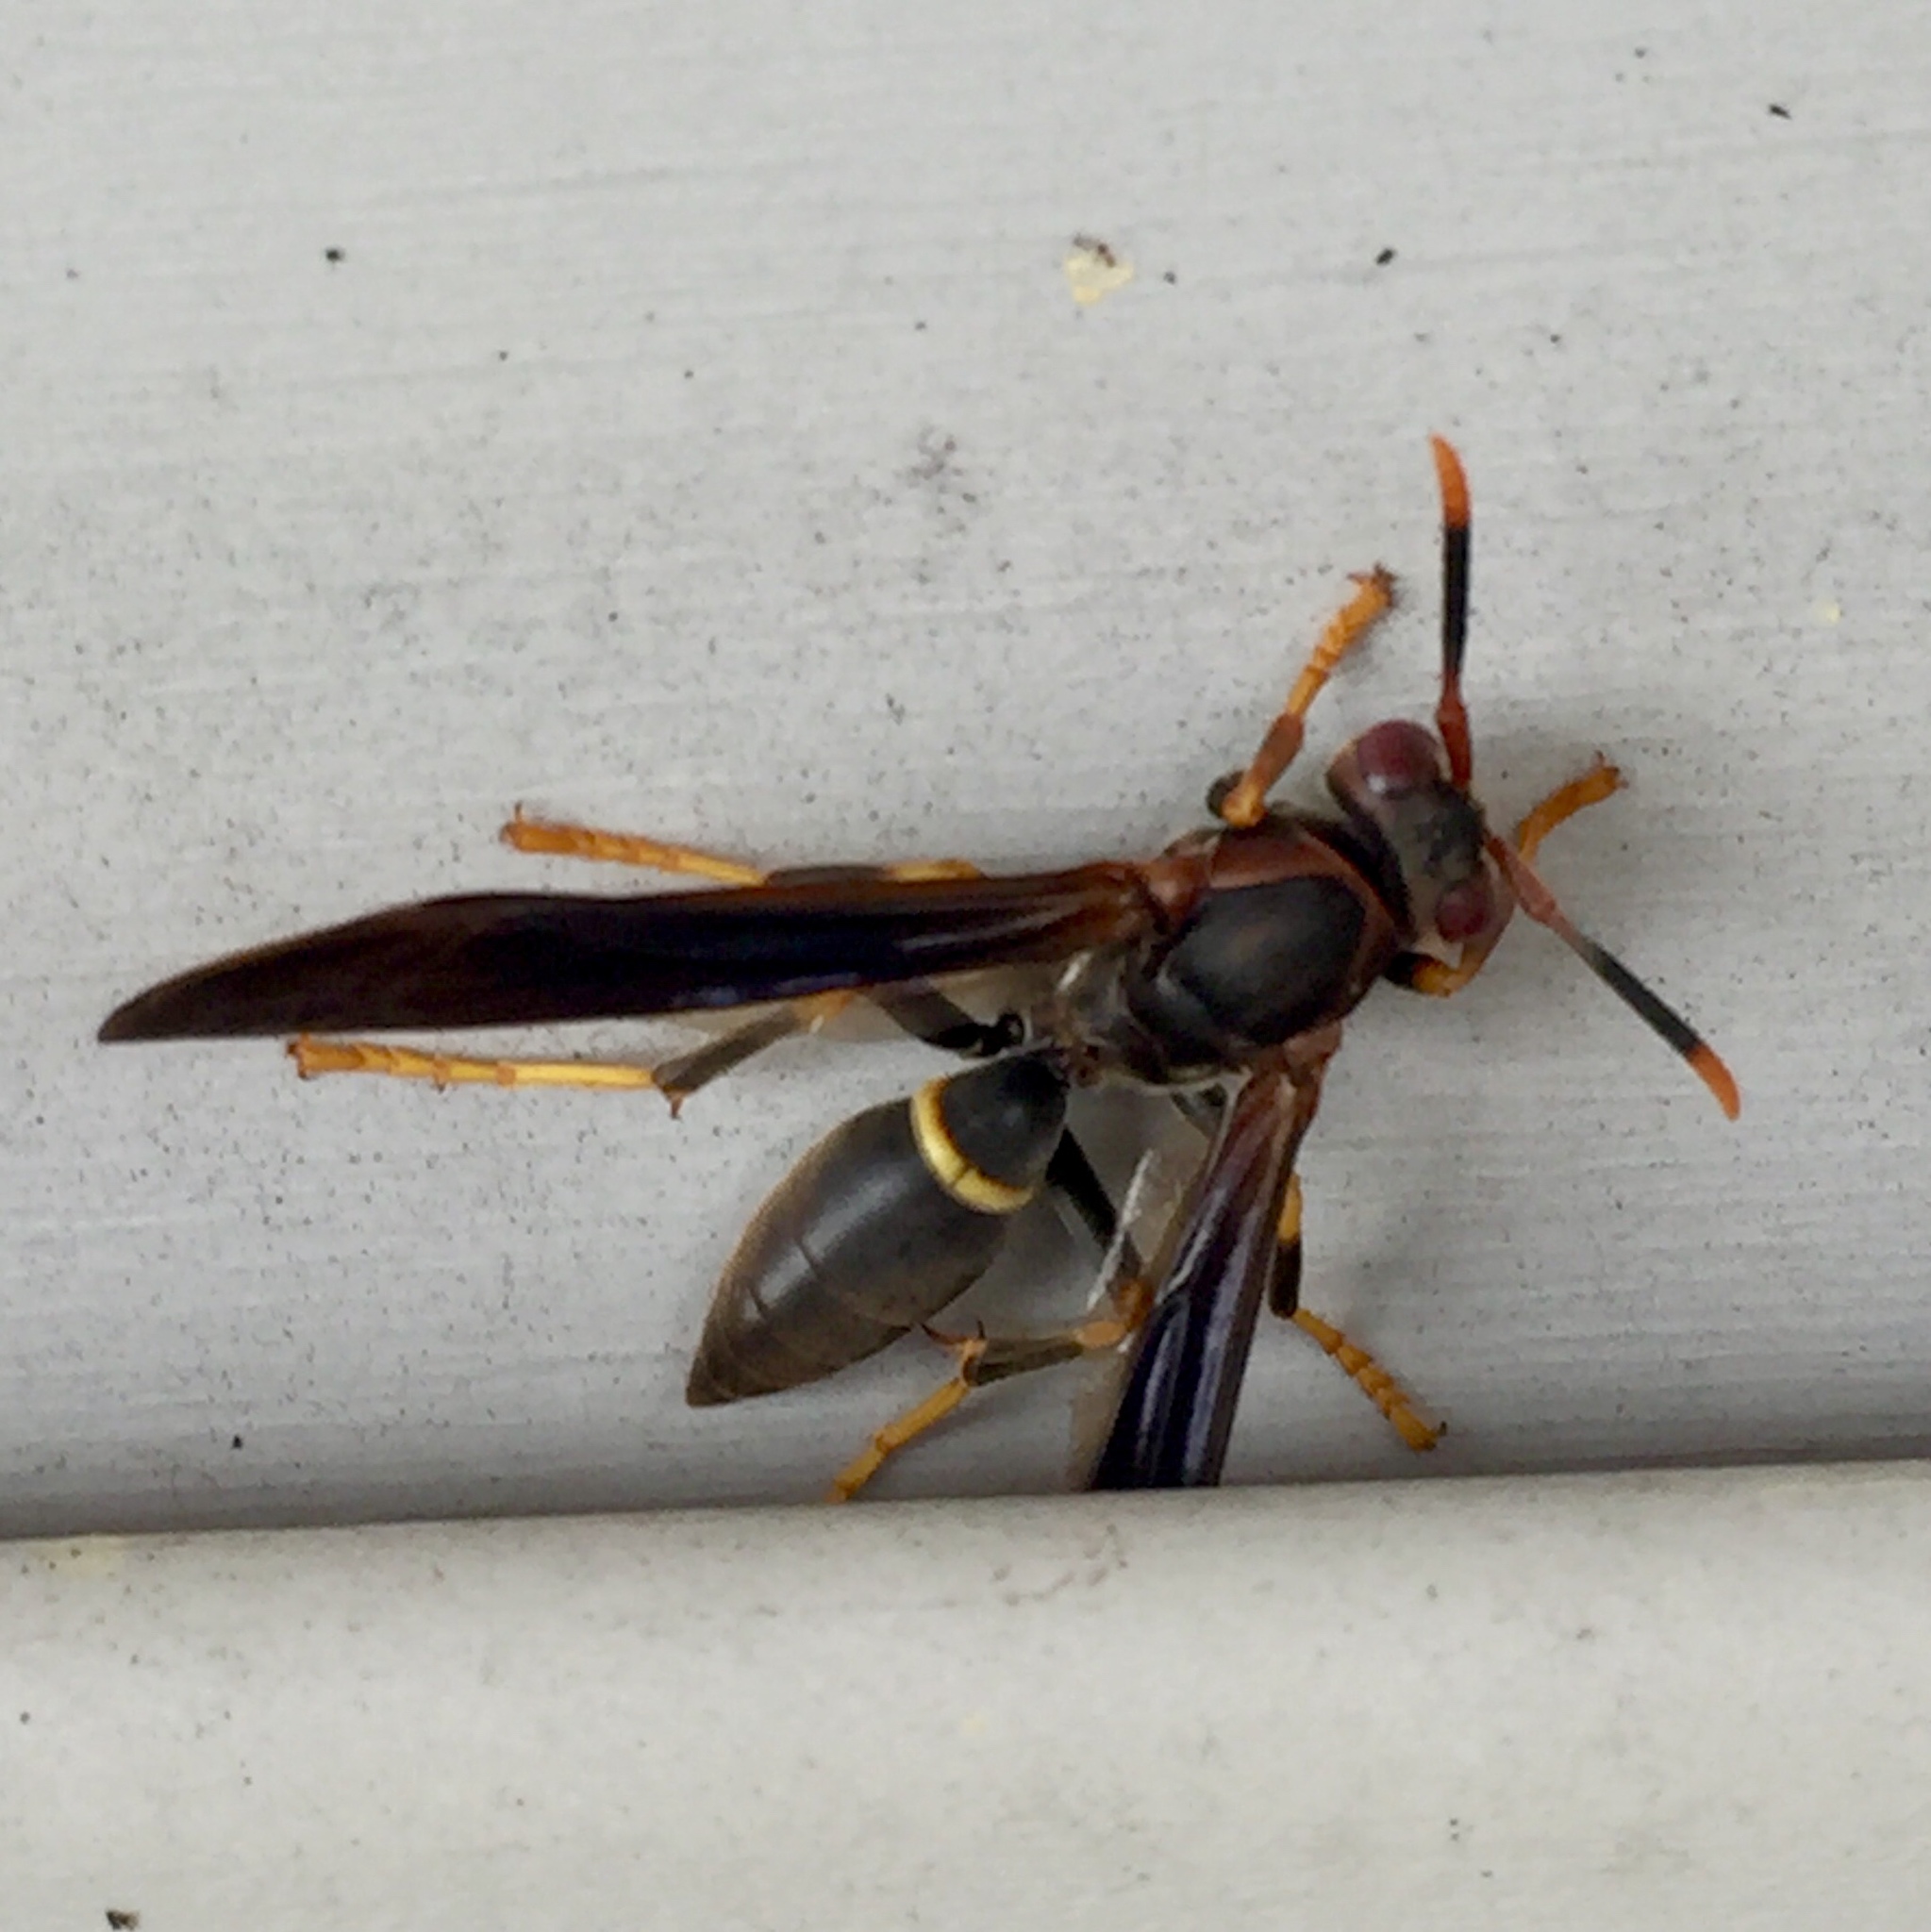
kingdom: Animalia
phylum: Arthropoda
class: Insecta
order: Hymenoptera
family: Eumenidae
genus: Polistes
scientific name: Polistes annularis
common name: Ringed paper wasp
